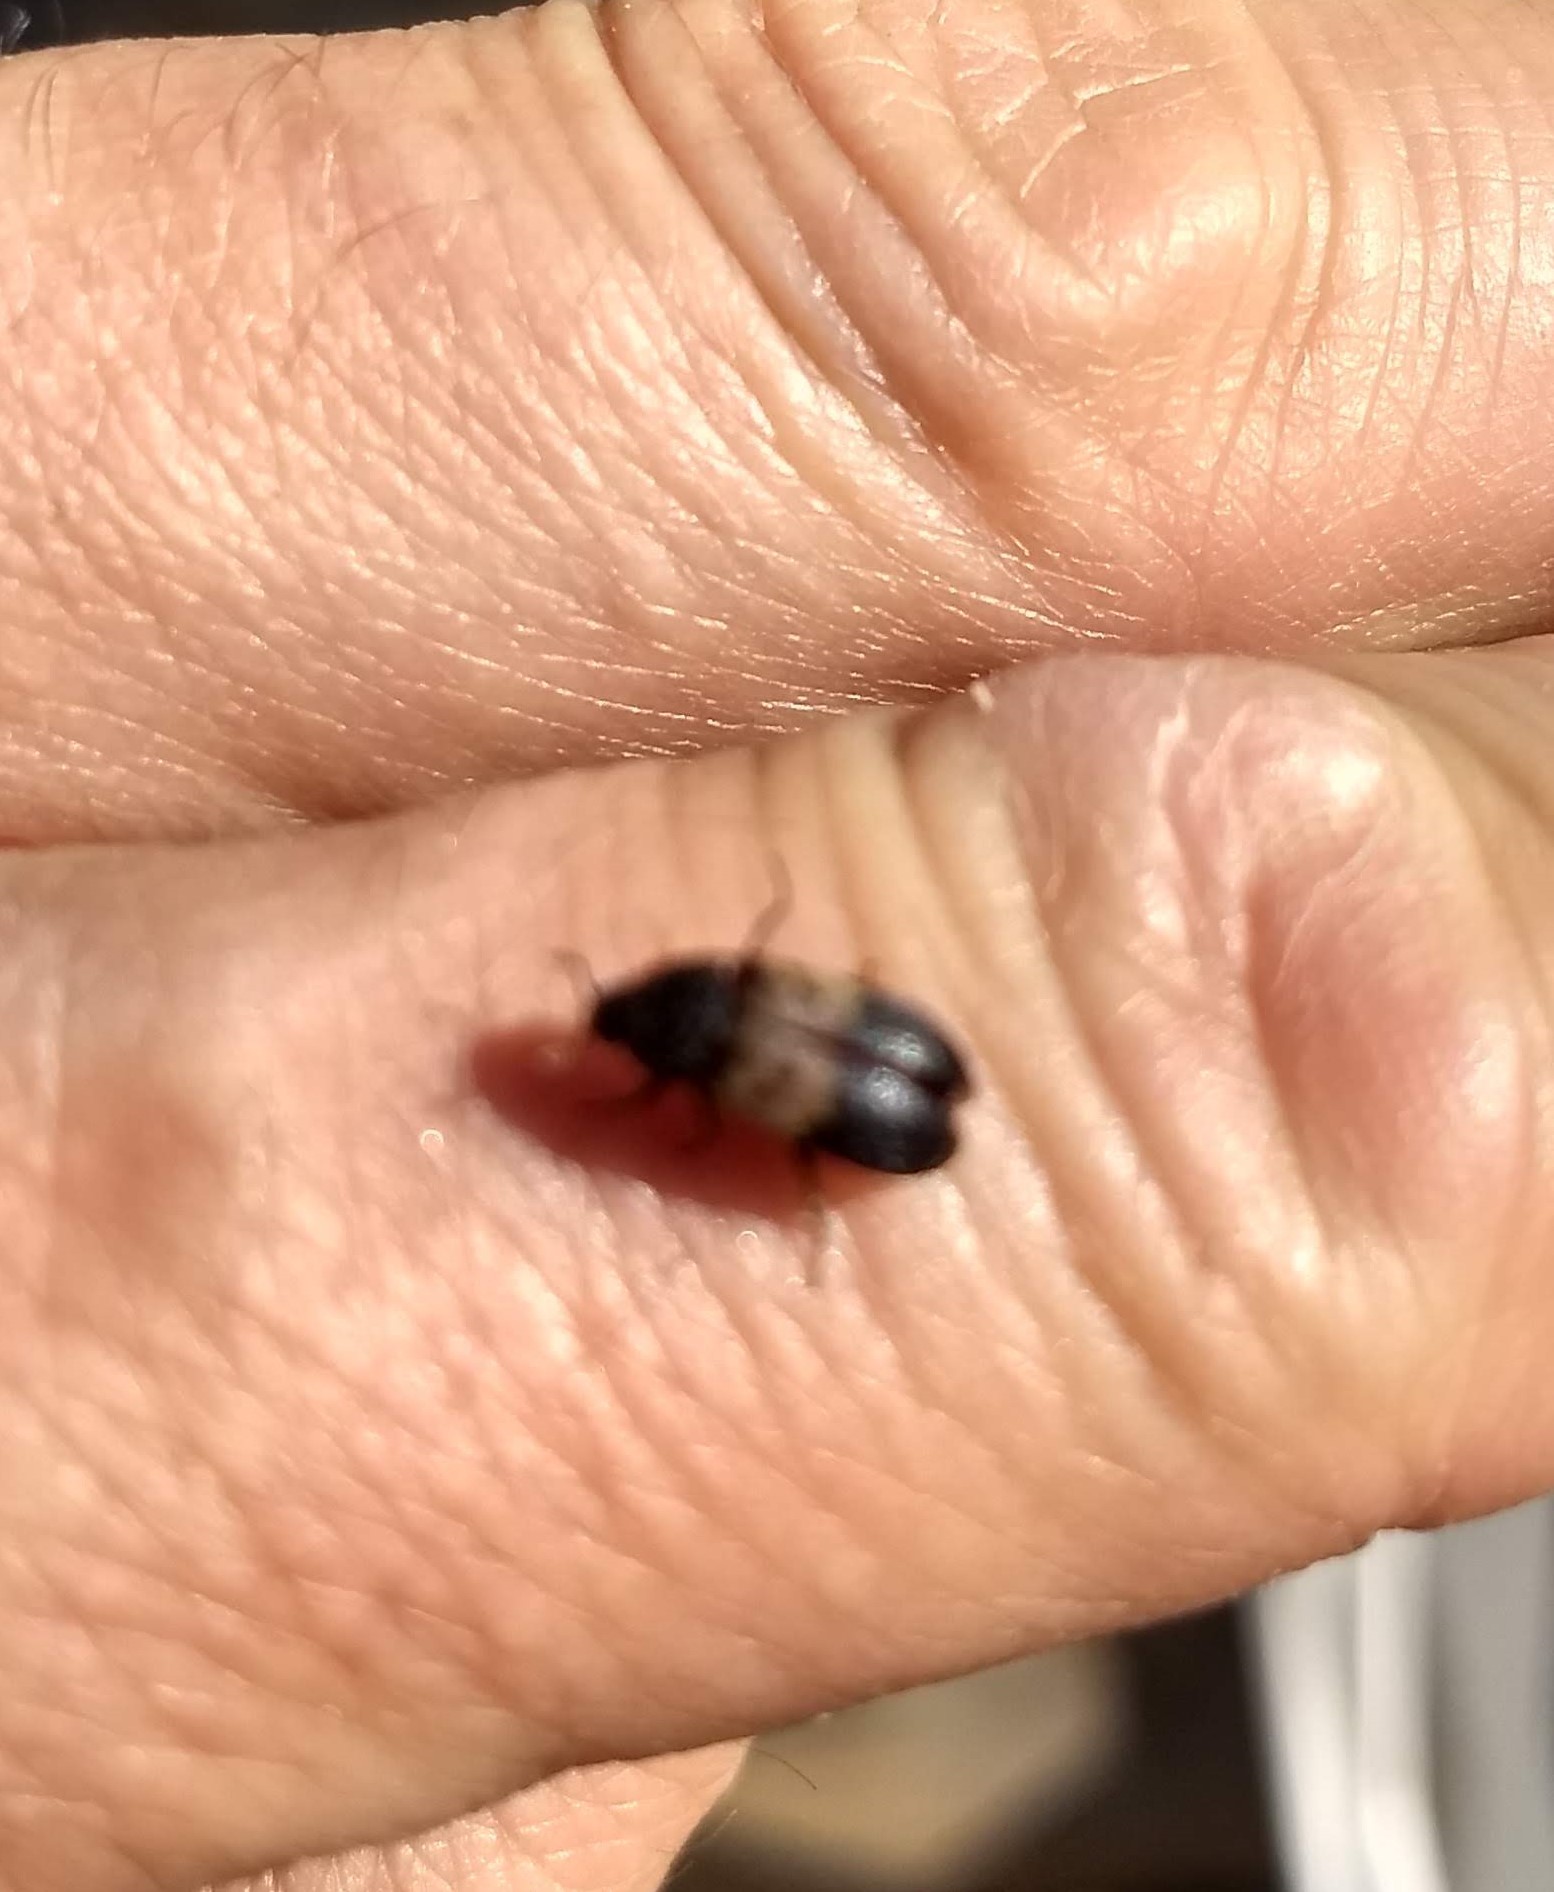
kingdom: Animalia
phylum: Arthropoda
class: Insecta
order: Coleoptera
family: Dermestidae
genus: Dermestes
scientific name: Dermestes lardarius
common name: Larder beetle
